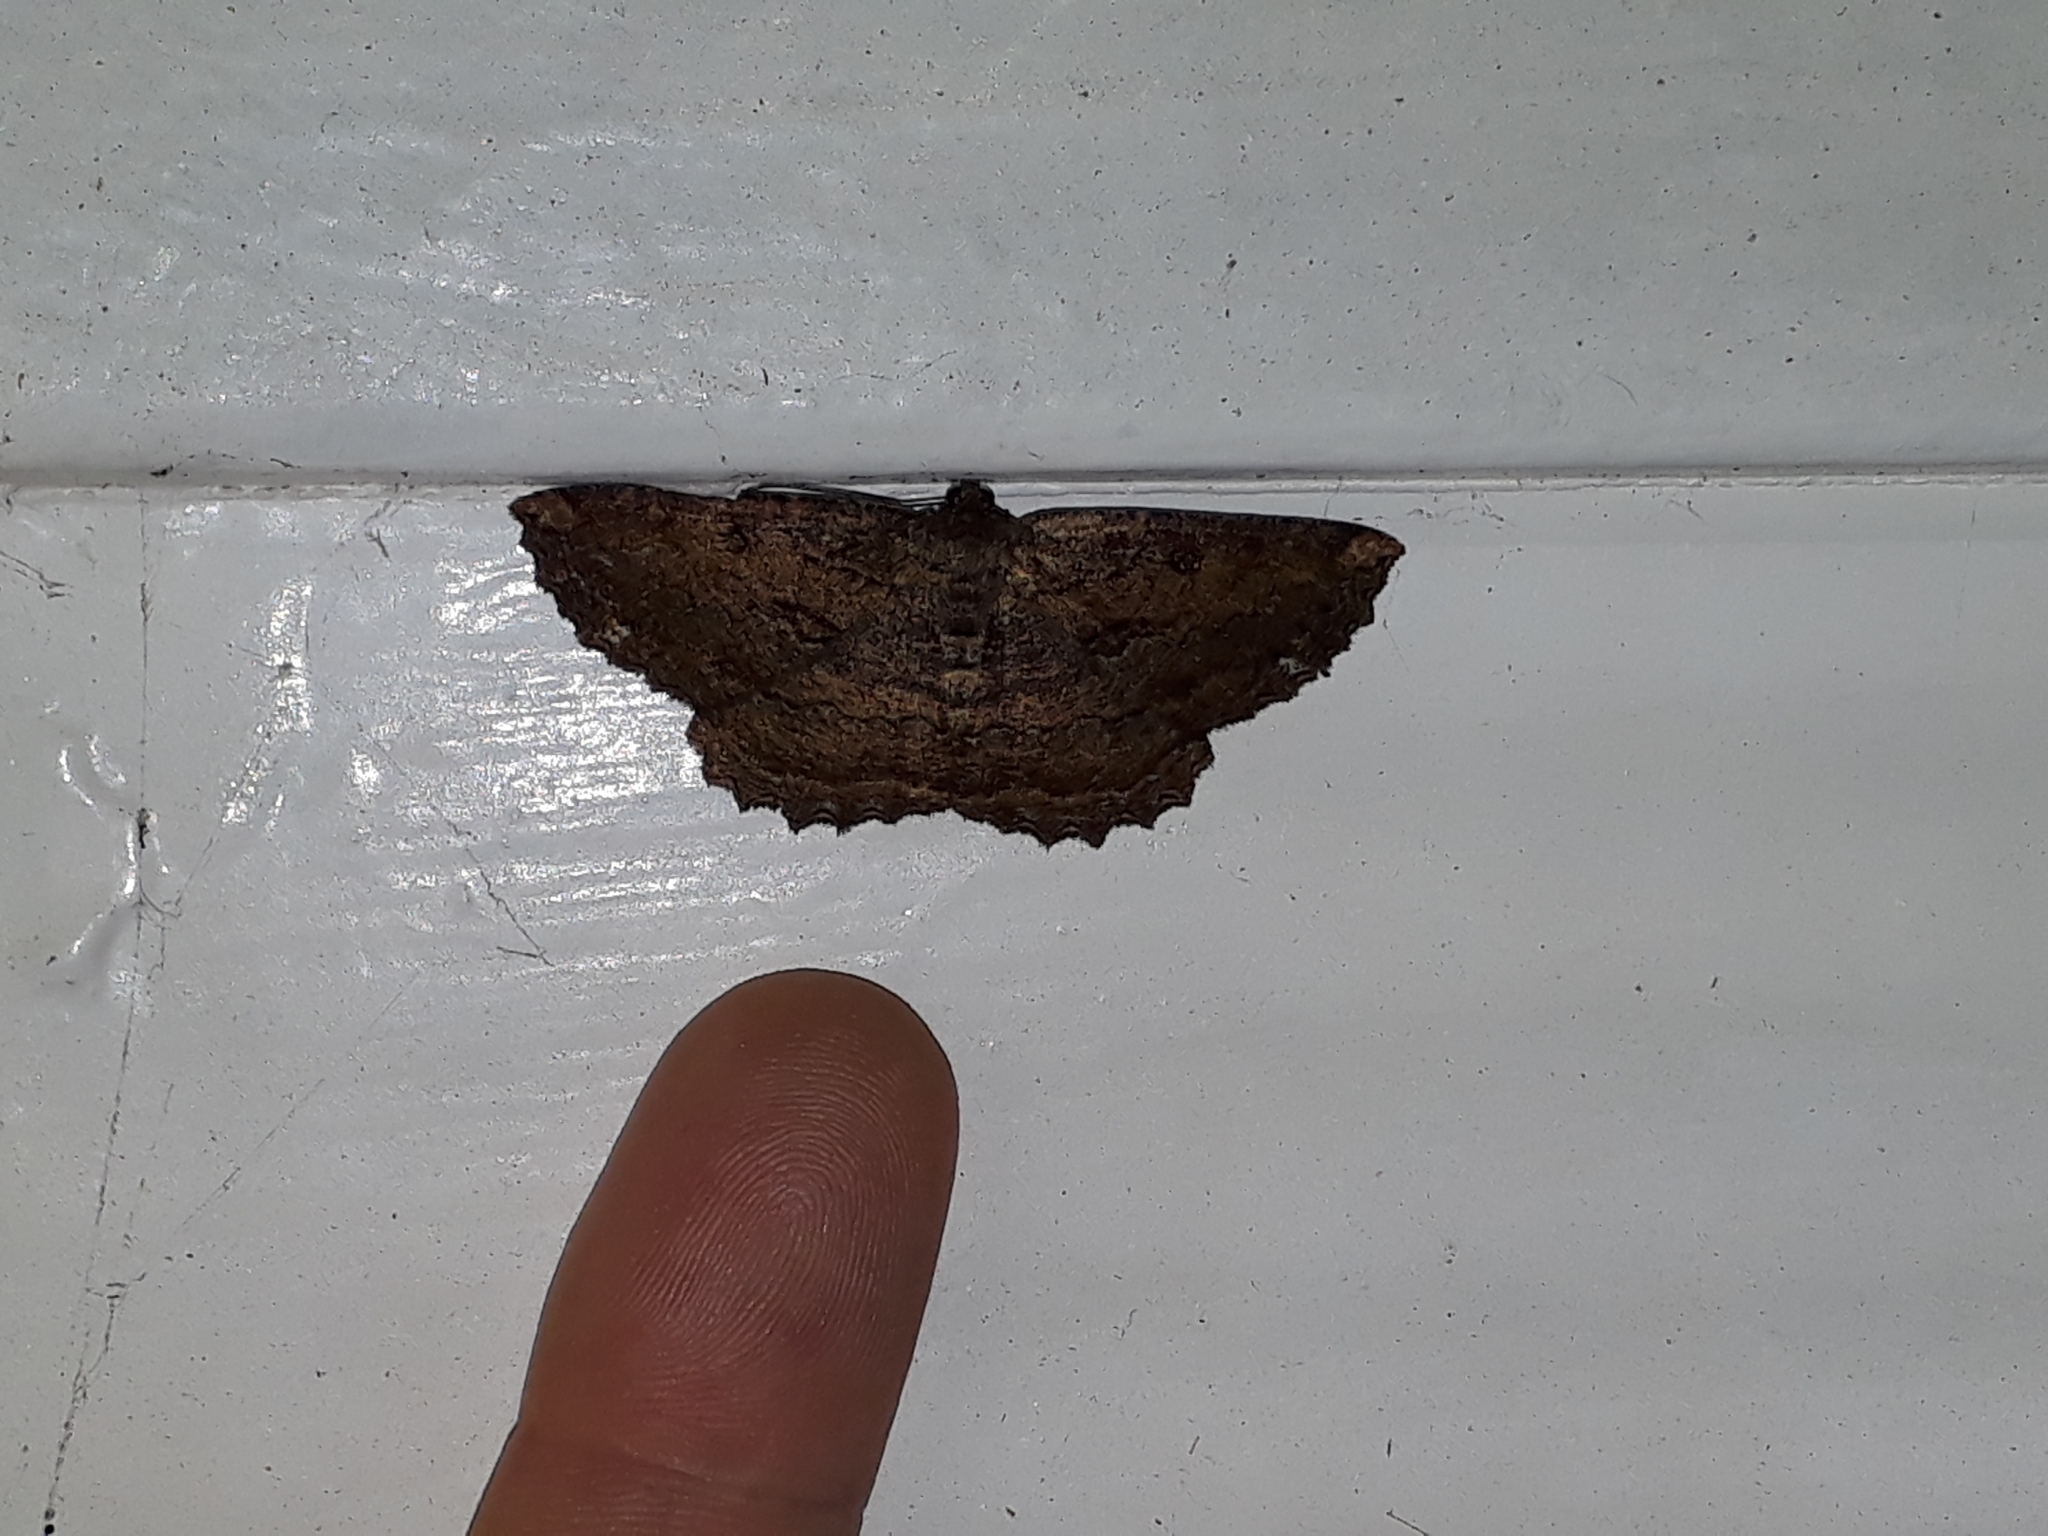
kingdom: Animalia
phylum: Arthropoda
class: Insecta
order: Lepidoptera
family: Geometridae
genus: Gellonia
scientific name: Gellonia dejectaria
